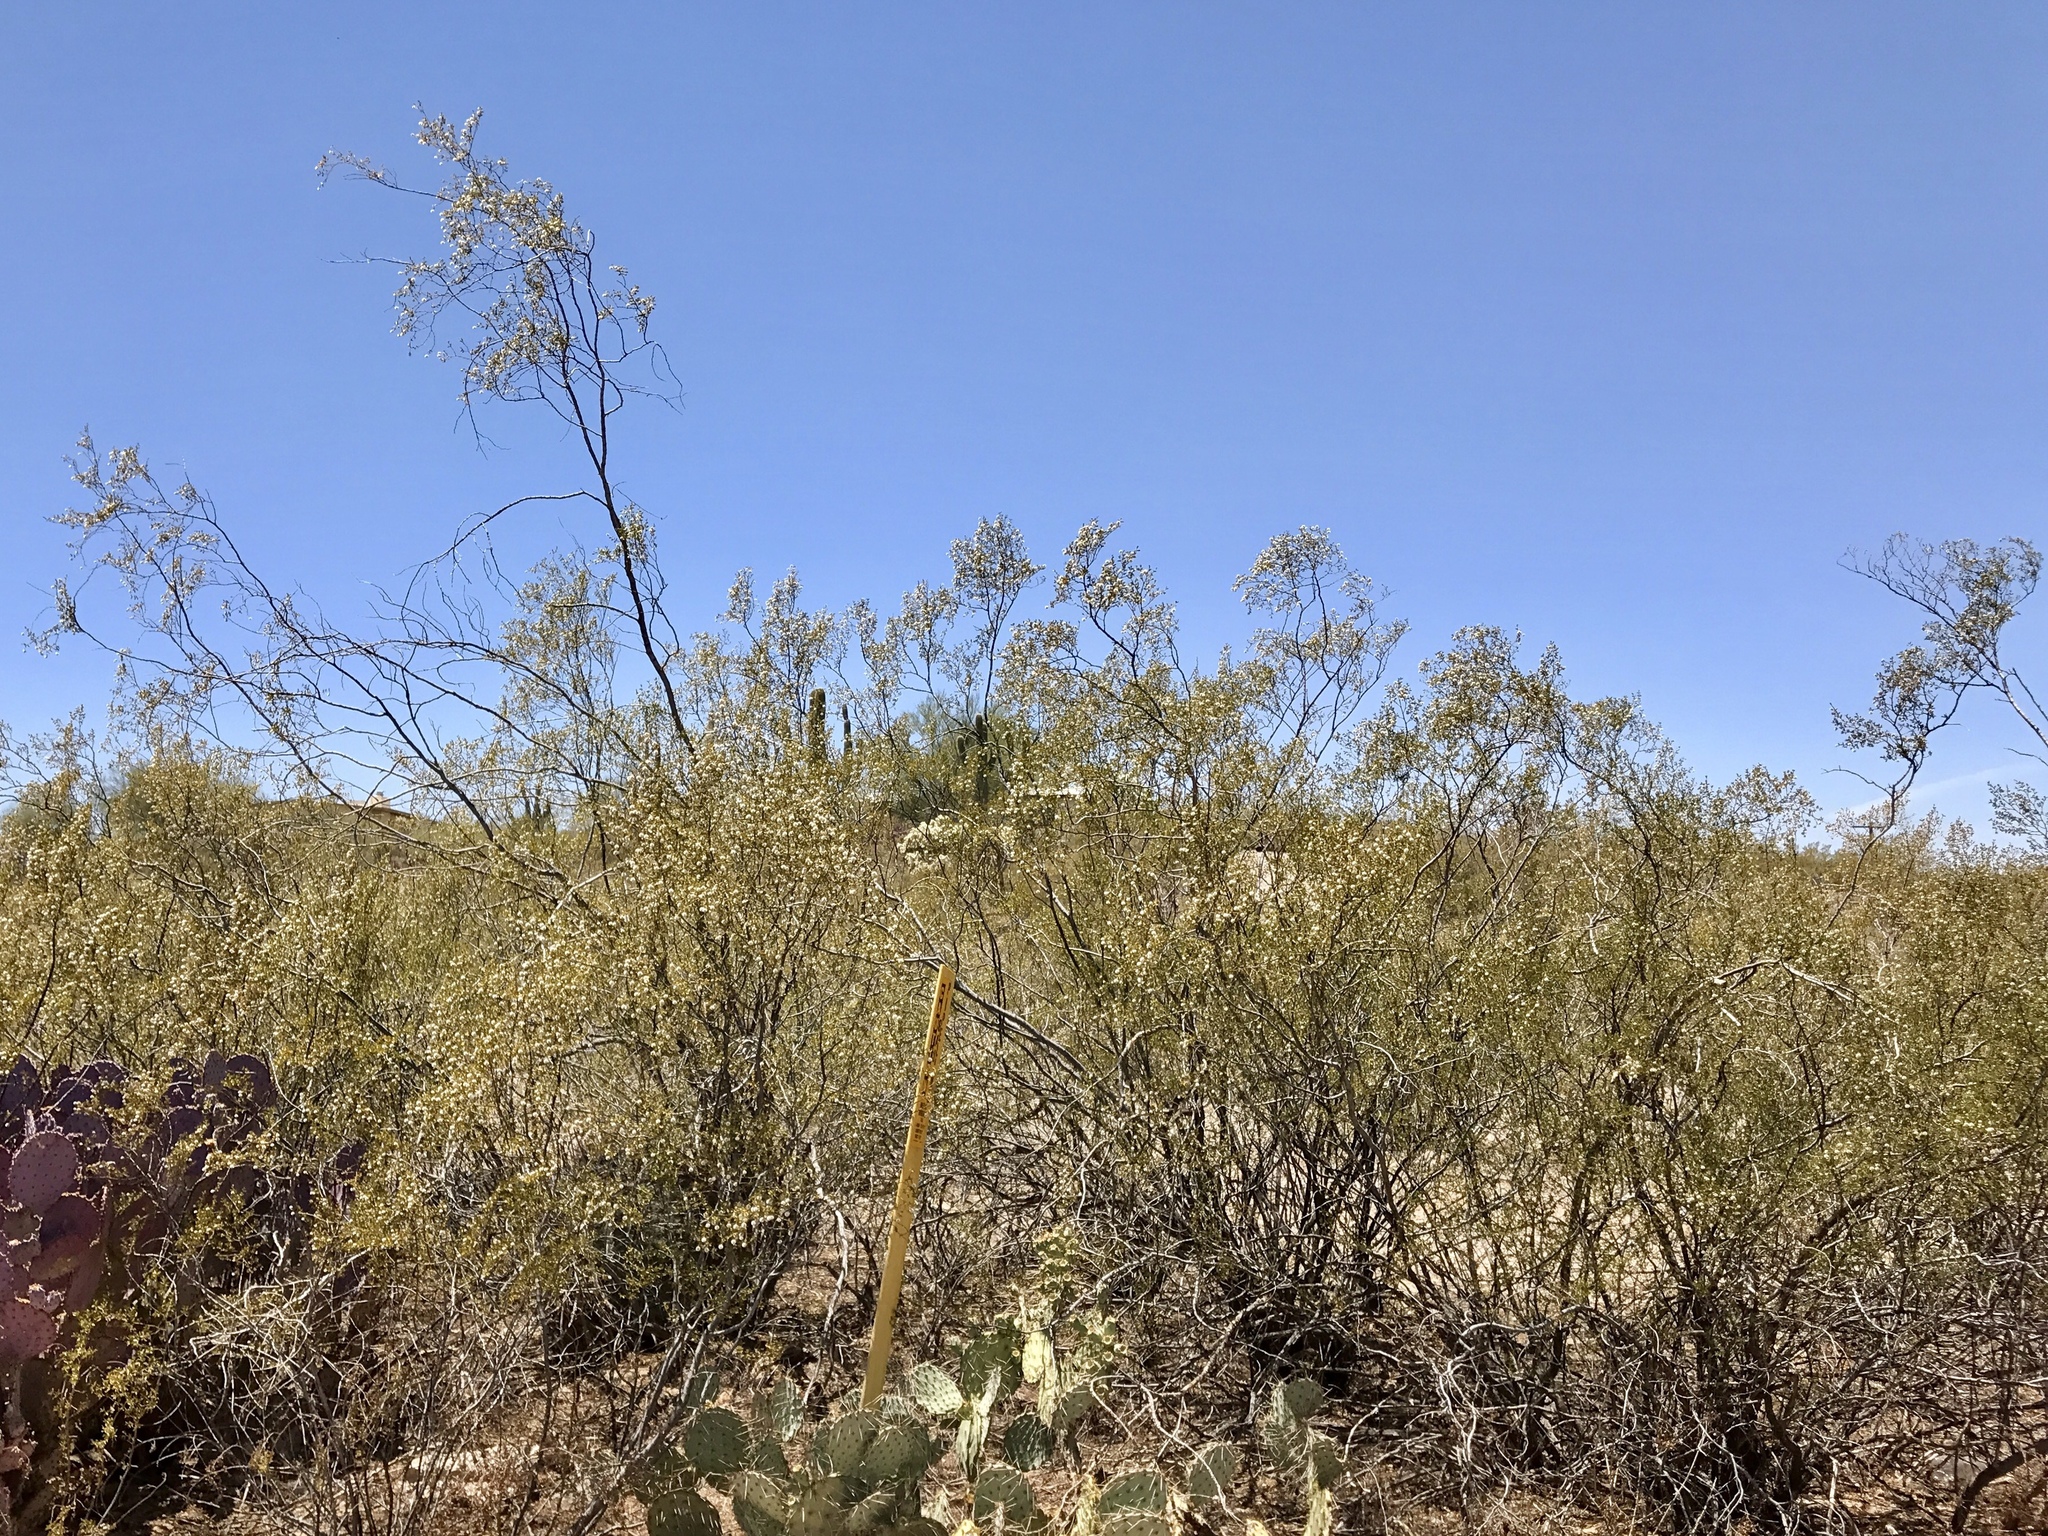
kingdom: Plantae
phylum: Tracheophyta
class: Magnoliopsida
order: Zygophyllales
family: Zygophyllaceae
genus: Larrea
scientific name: Larrea tridentata
